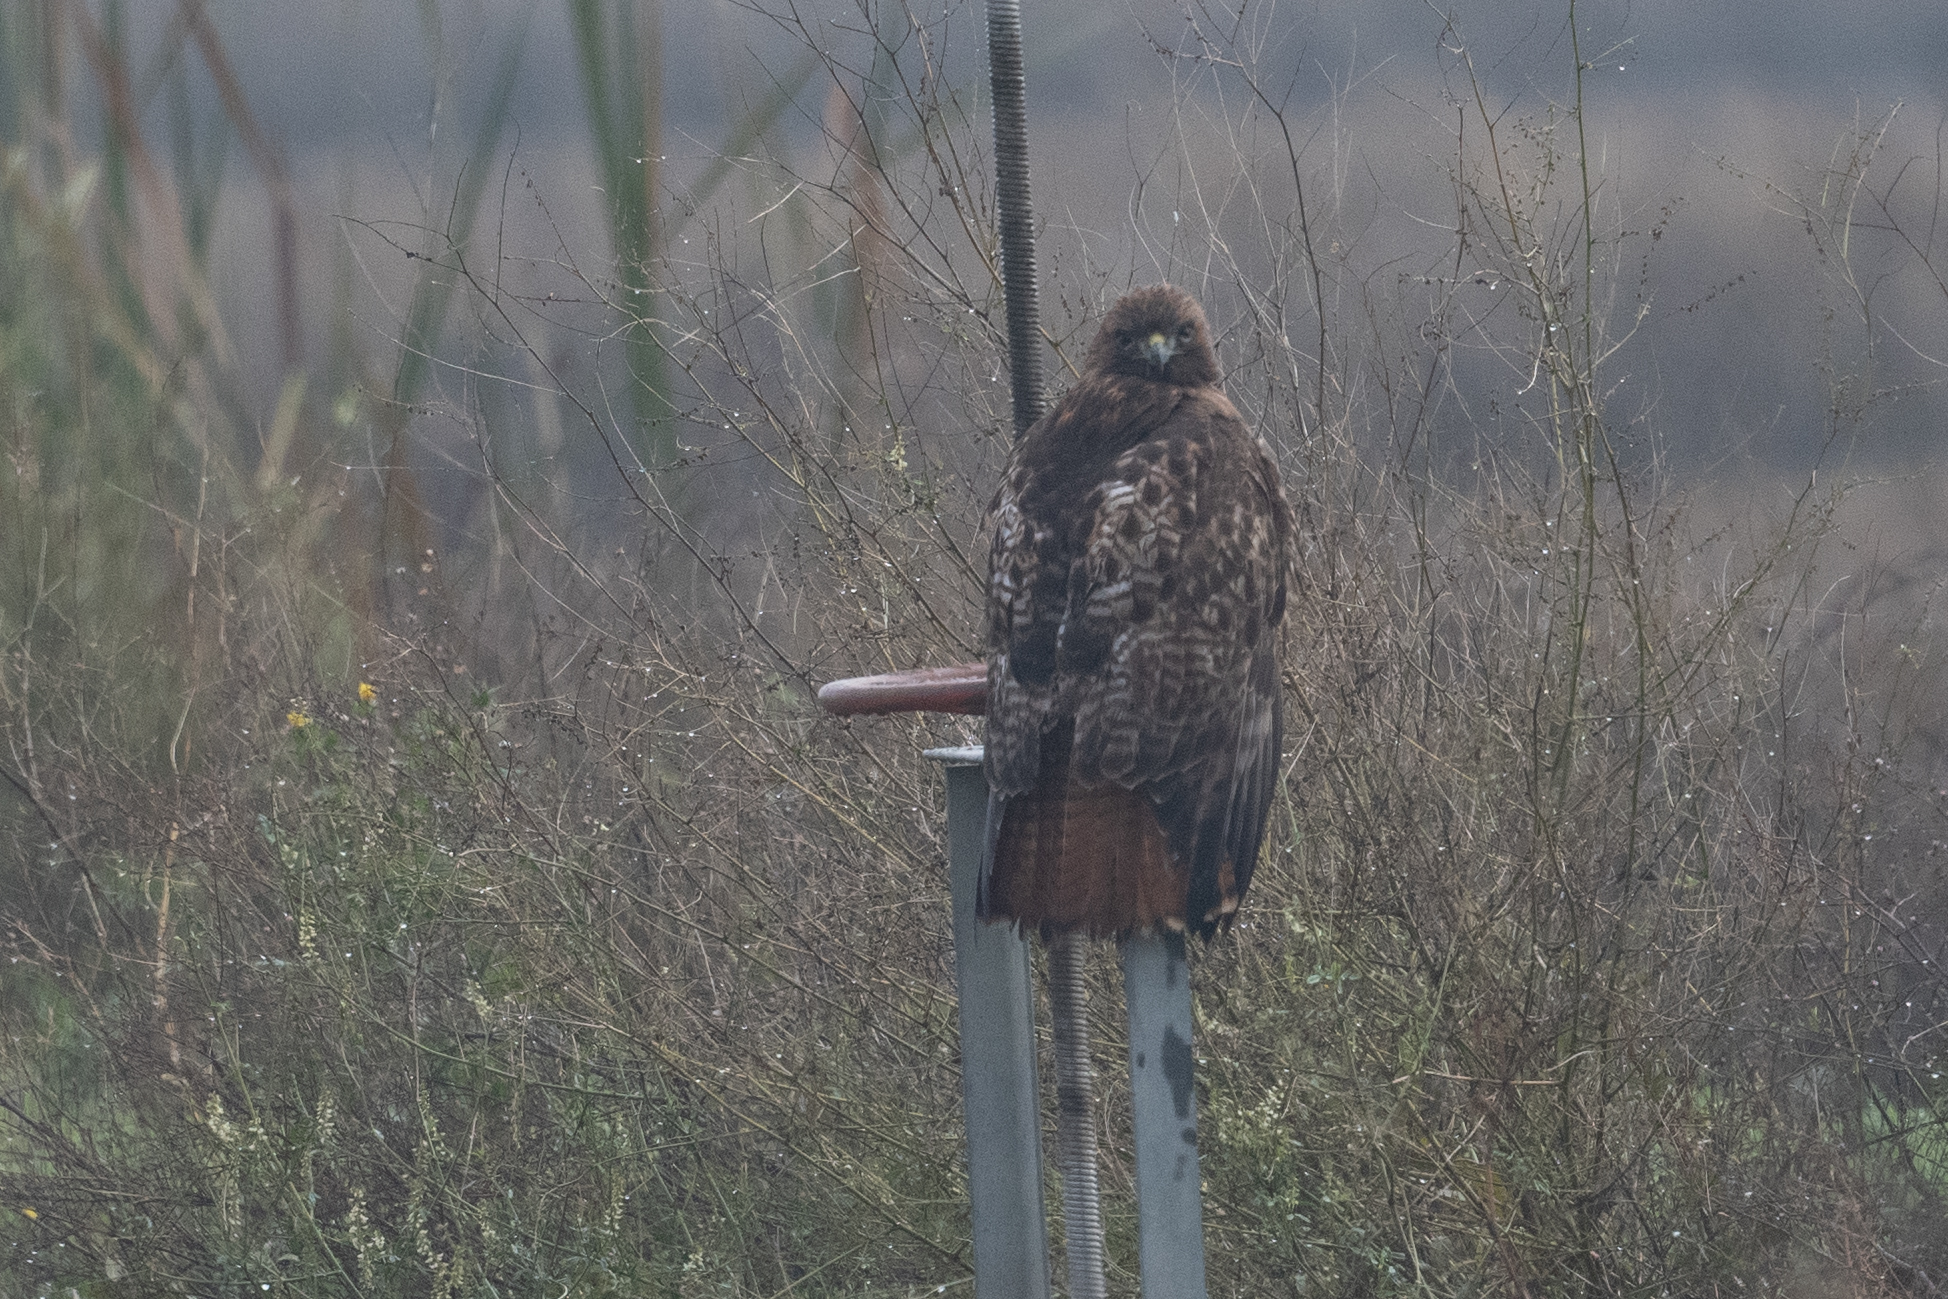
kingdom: Animalia
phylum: Chordata
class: Aves
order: Accipitriformes
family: Accipitridae
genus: Buteo
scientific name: Buteo jamaicensis
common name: Red-tailed hawk
